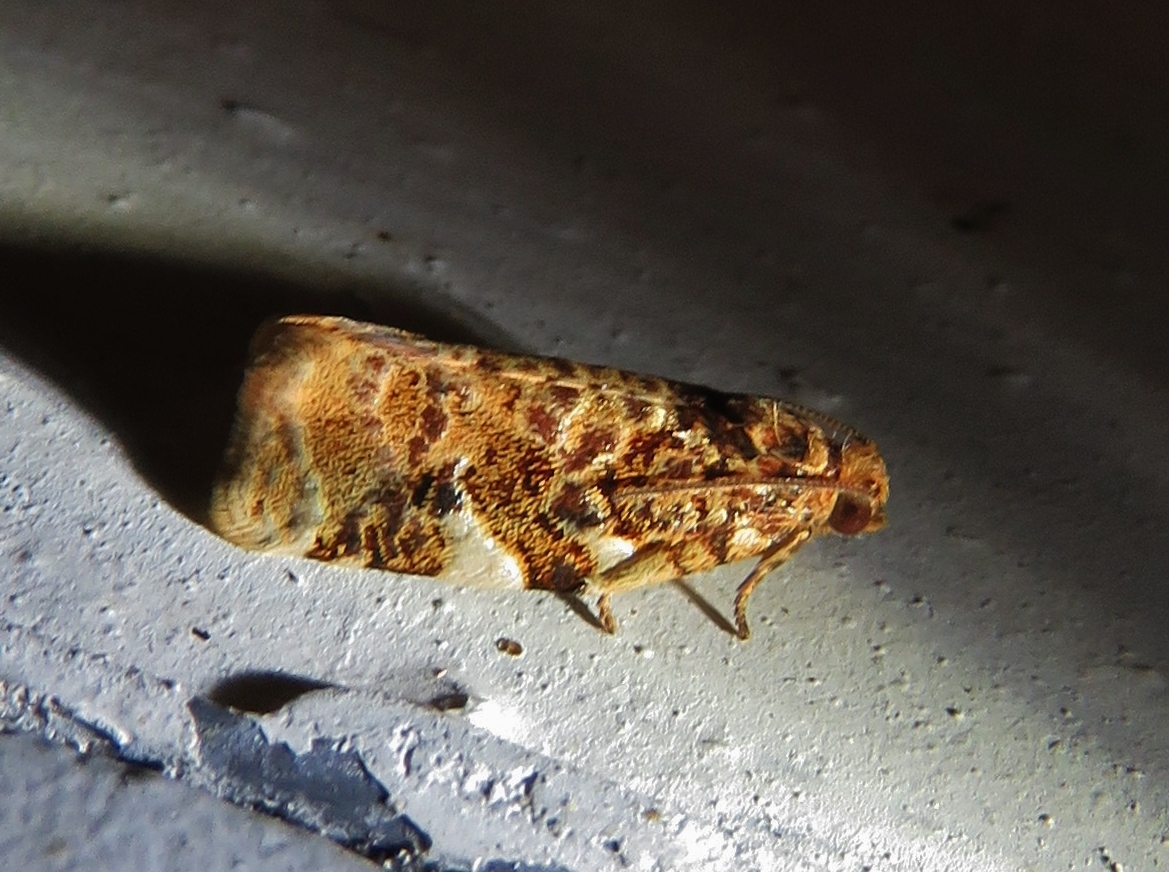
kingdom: Animalia
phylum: Arthropoda
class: Insecta
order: Lepidoptera
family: Tortricidae
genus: Archips
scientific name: Archips argyrospila
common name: Fruit-tree leafroller moth
